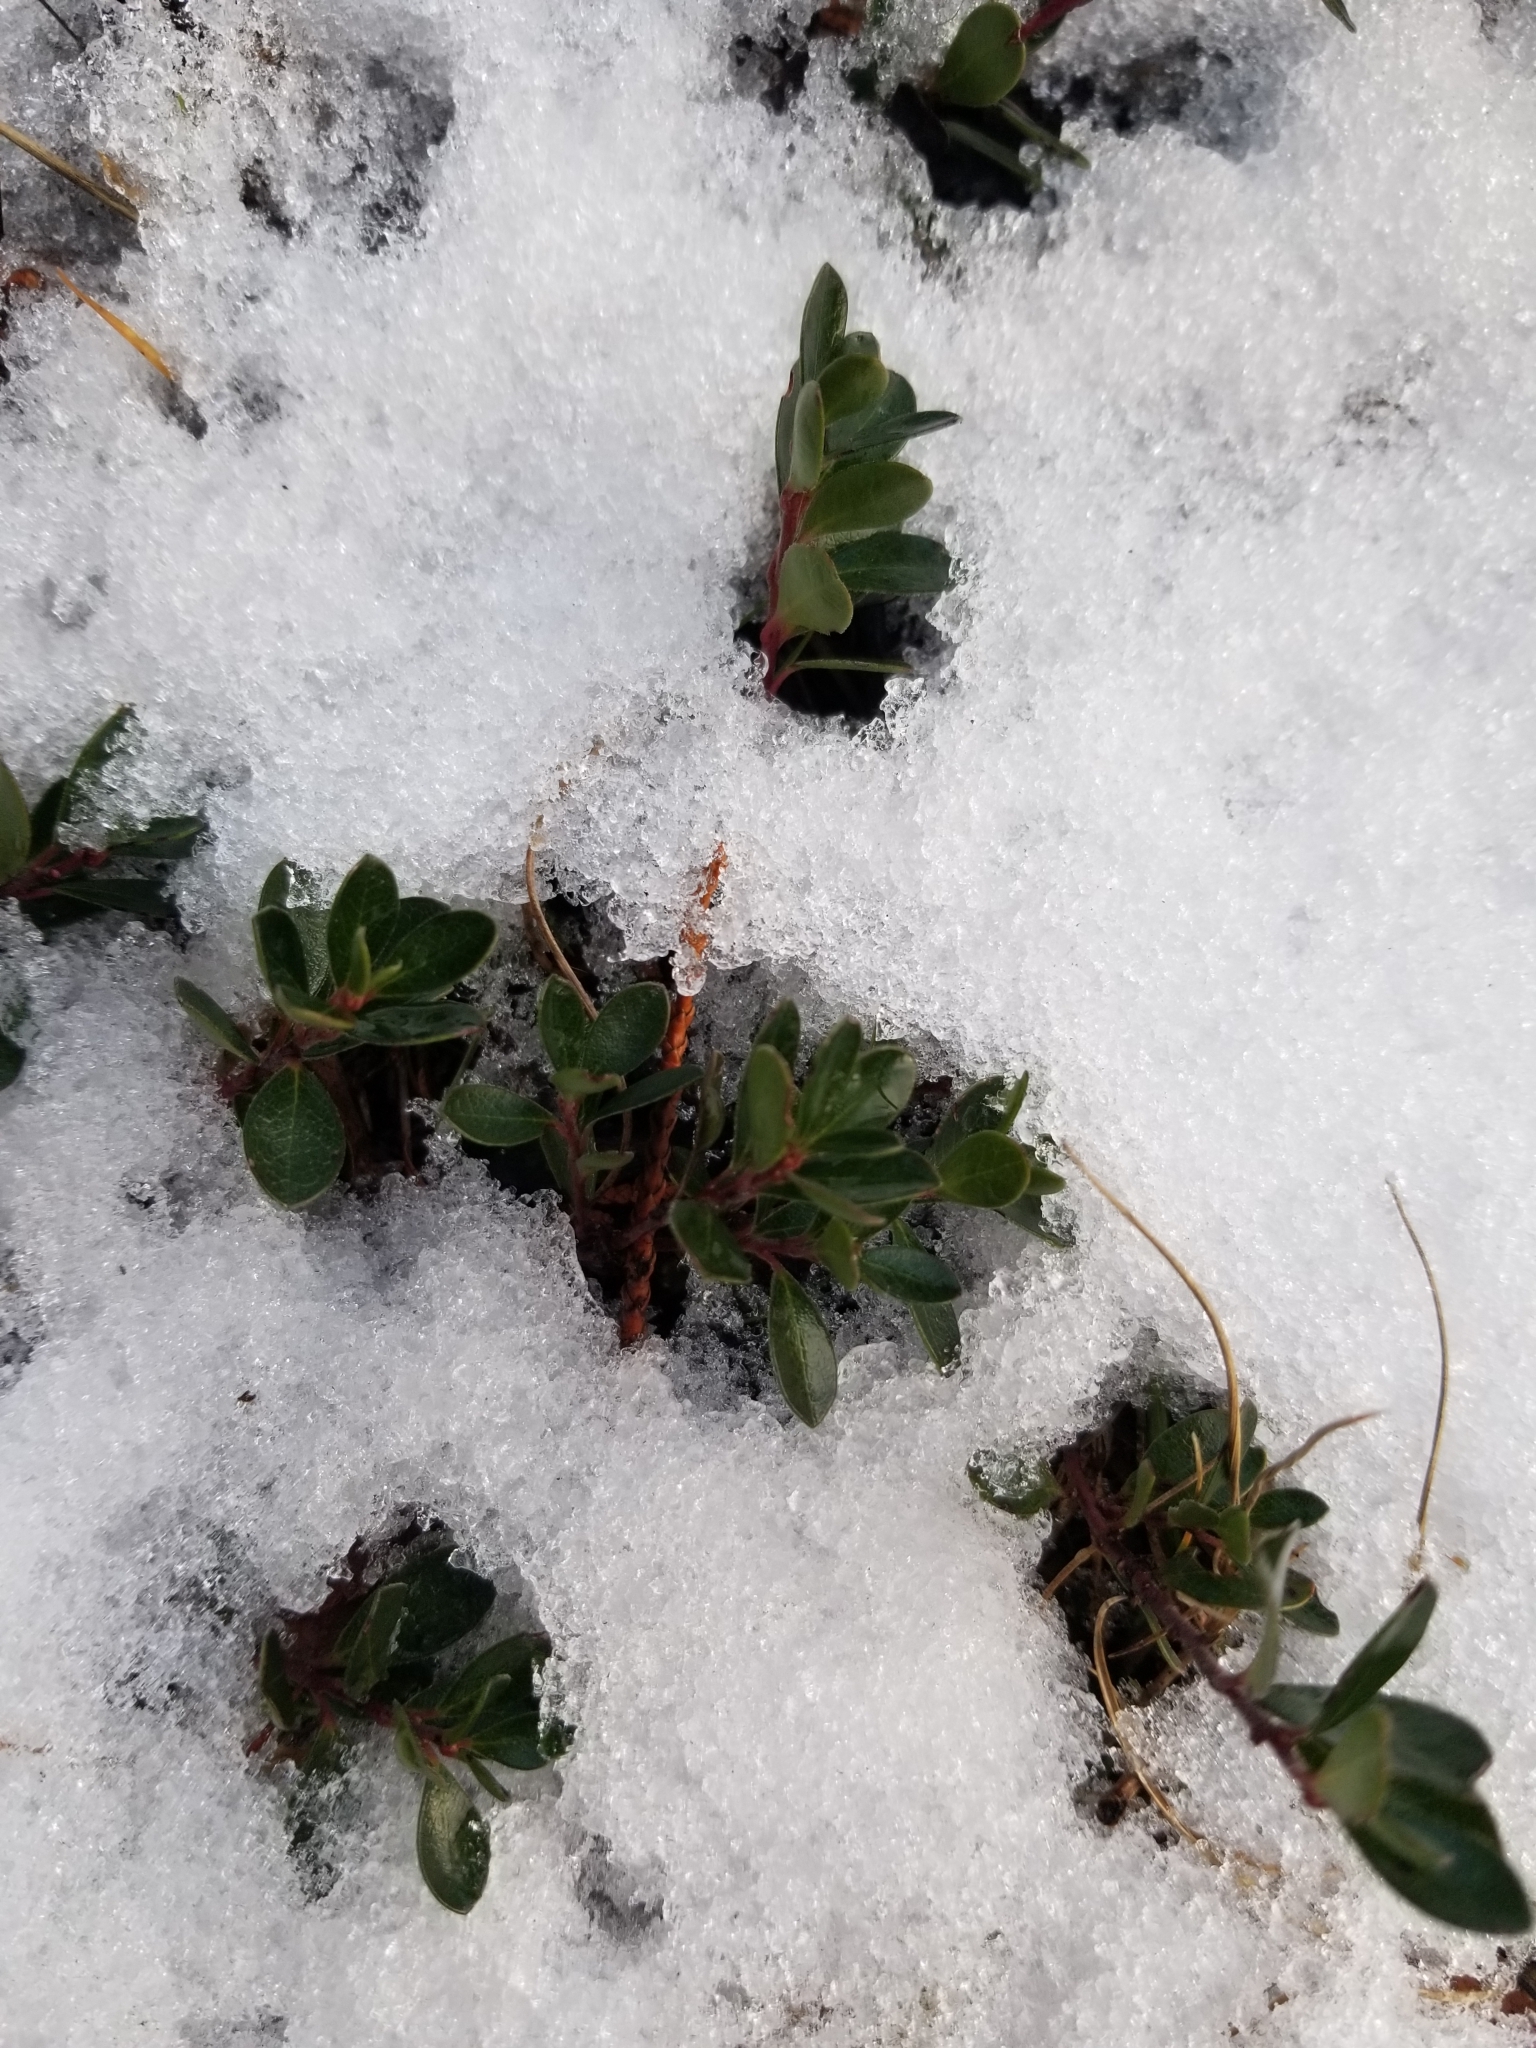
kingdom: Plantae
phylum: Tracheophyta
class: Magnoliopsida
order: Ericales
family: Ericaceae
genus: Arctostaphylos
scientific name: Arctostaphylos uva-ursi
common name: Bearberry
